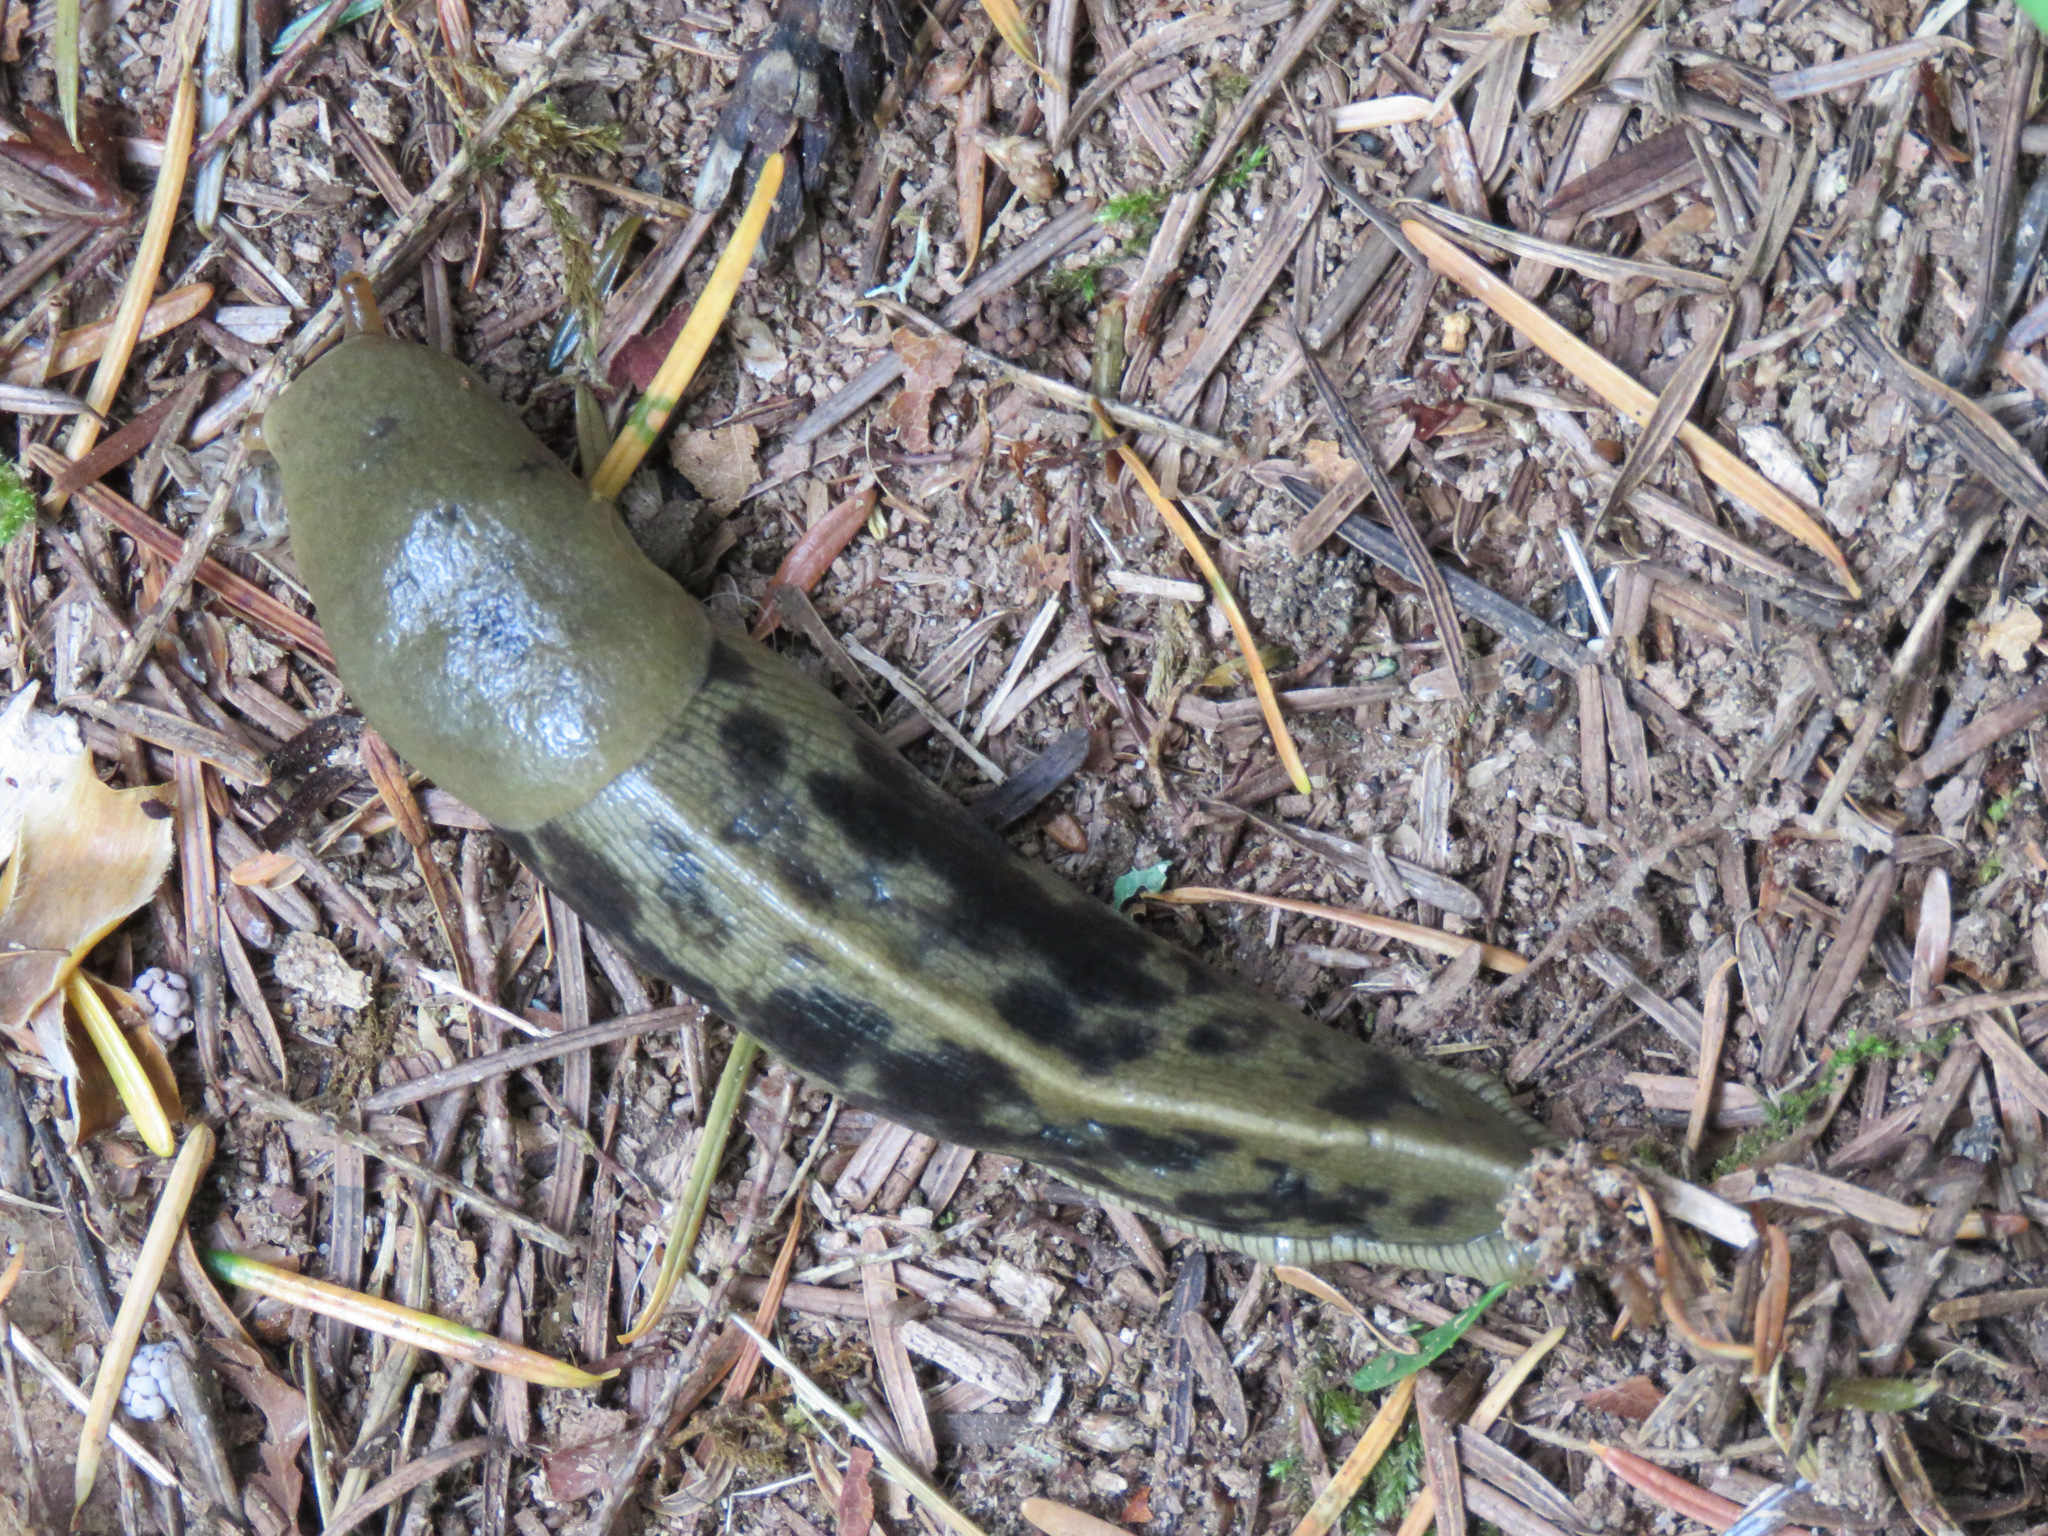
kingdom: Animalia
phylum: Mollusca
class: Gastropoda
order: Stylommatophora
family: Ariolimacidae
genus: Ariolimax
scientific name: Ariolimax columbianus
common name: Pacific banana slug
